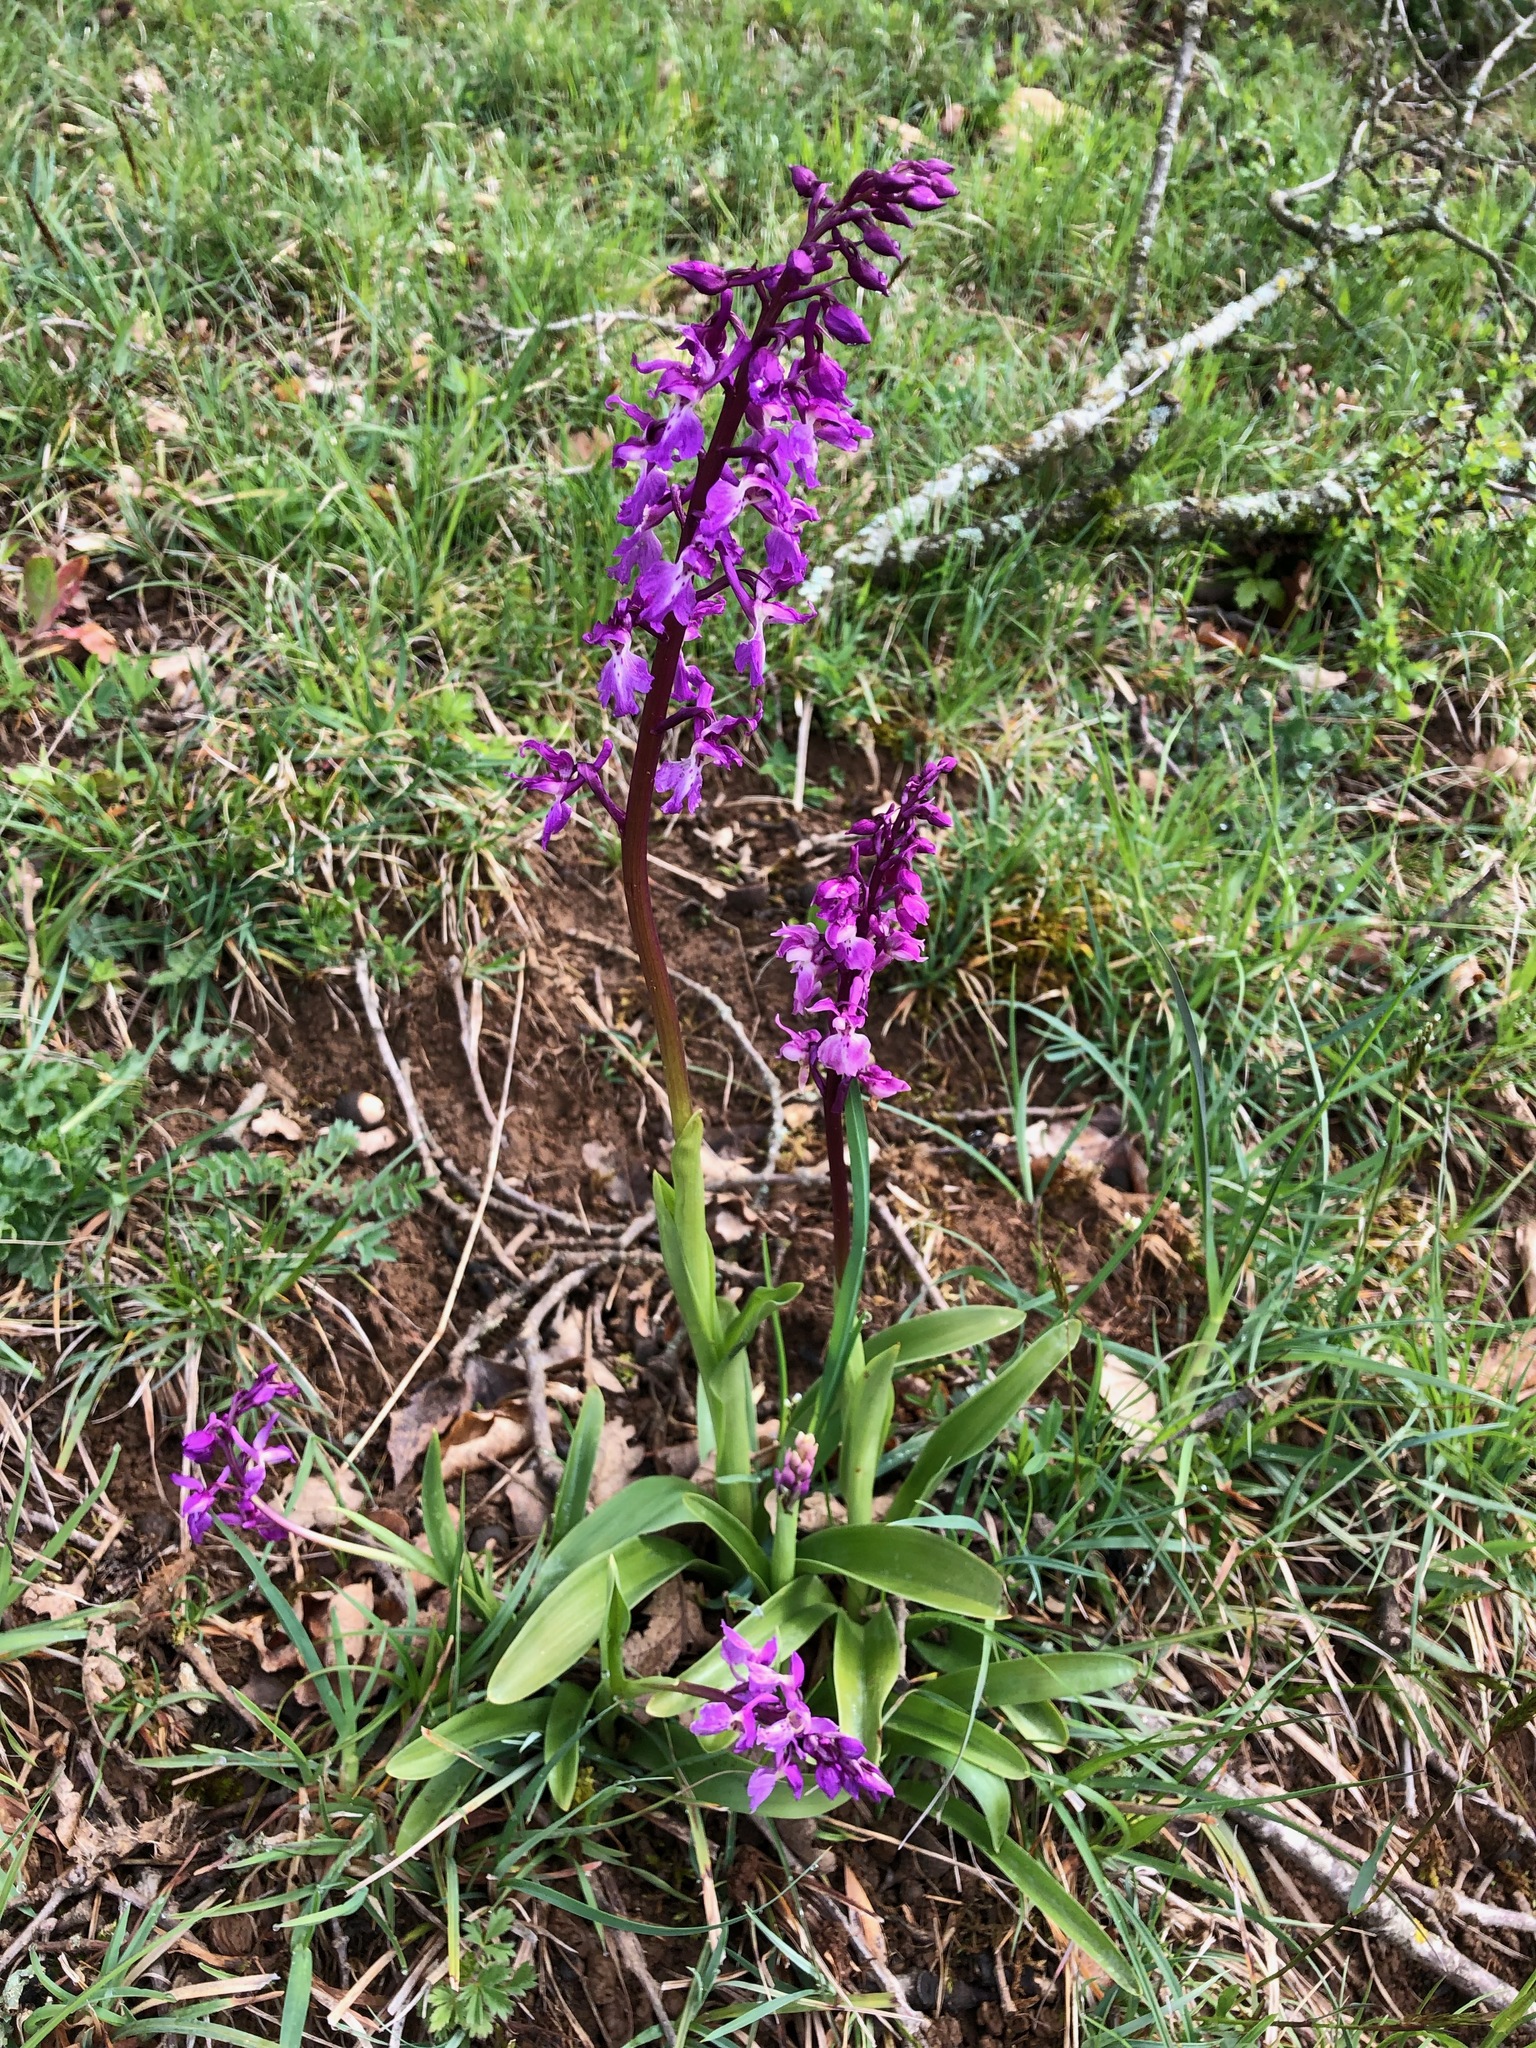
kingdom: Plantae
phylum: Tracheophyta
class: Liliopsida
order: Asparagales
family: Orchidaceae
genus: Orchis
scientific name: Orchis mascula
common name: Early-purple orchid
